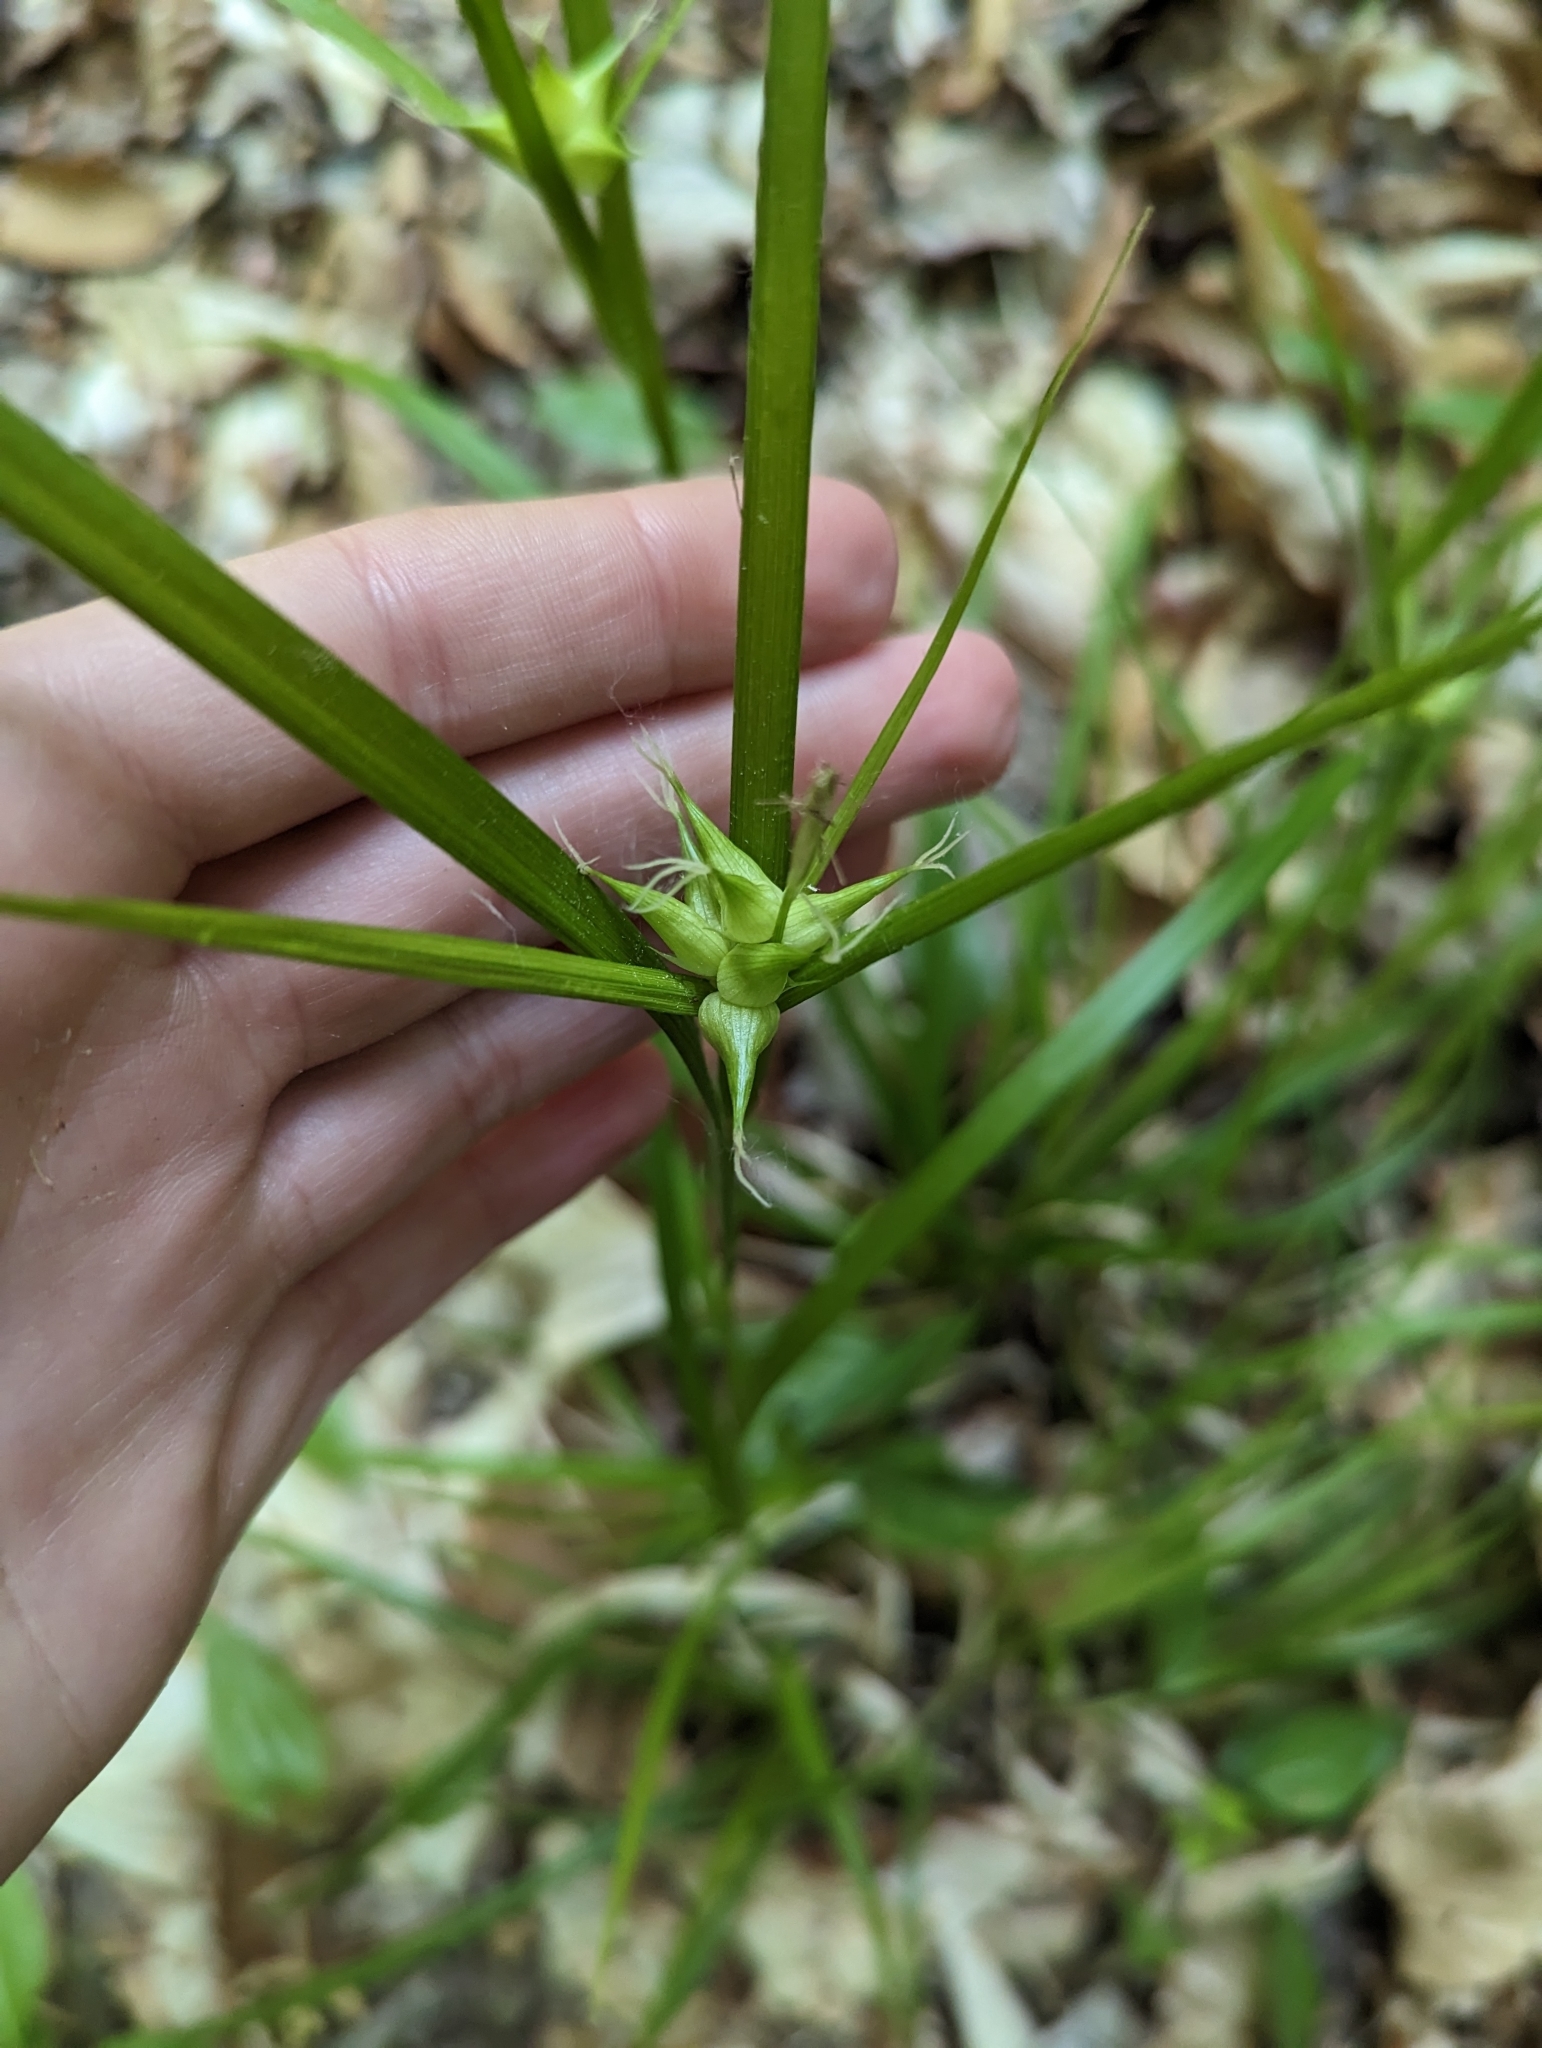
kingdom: Plantae
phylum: Tracheophyta
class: Liliopsida
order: Poales
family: Cyperaceae
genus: Carex
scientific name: Carex intumescens
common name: Greater bladder sedge
